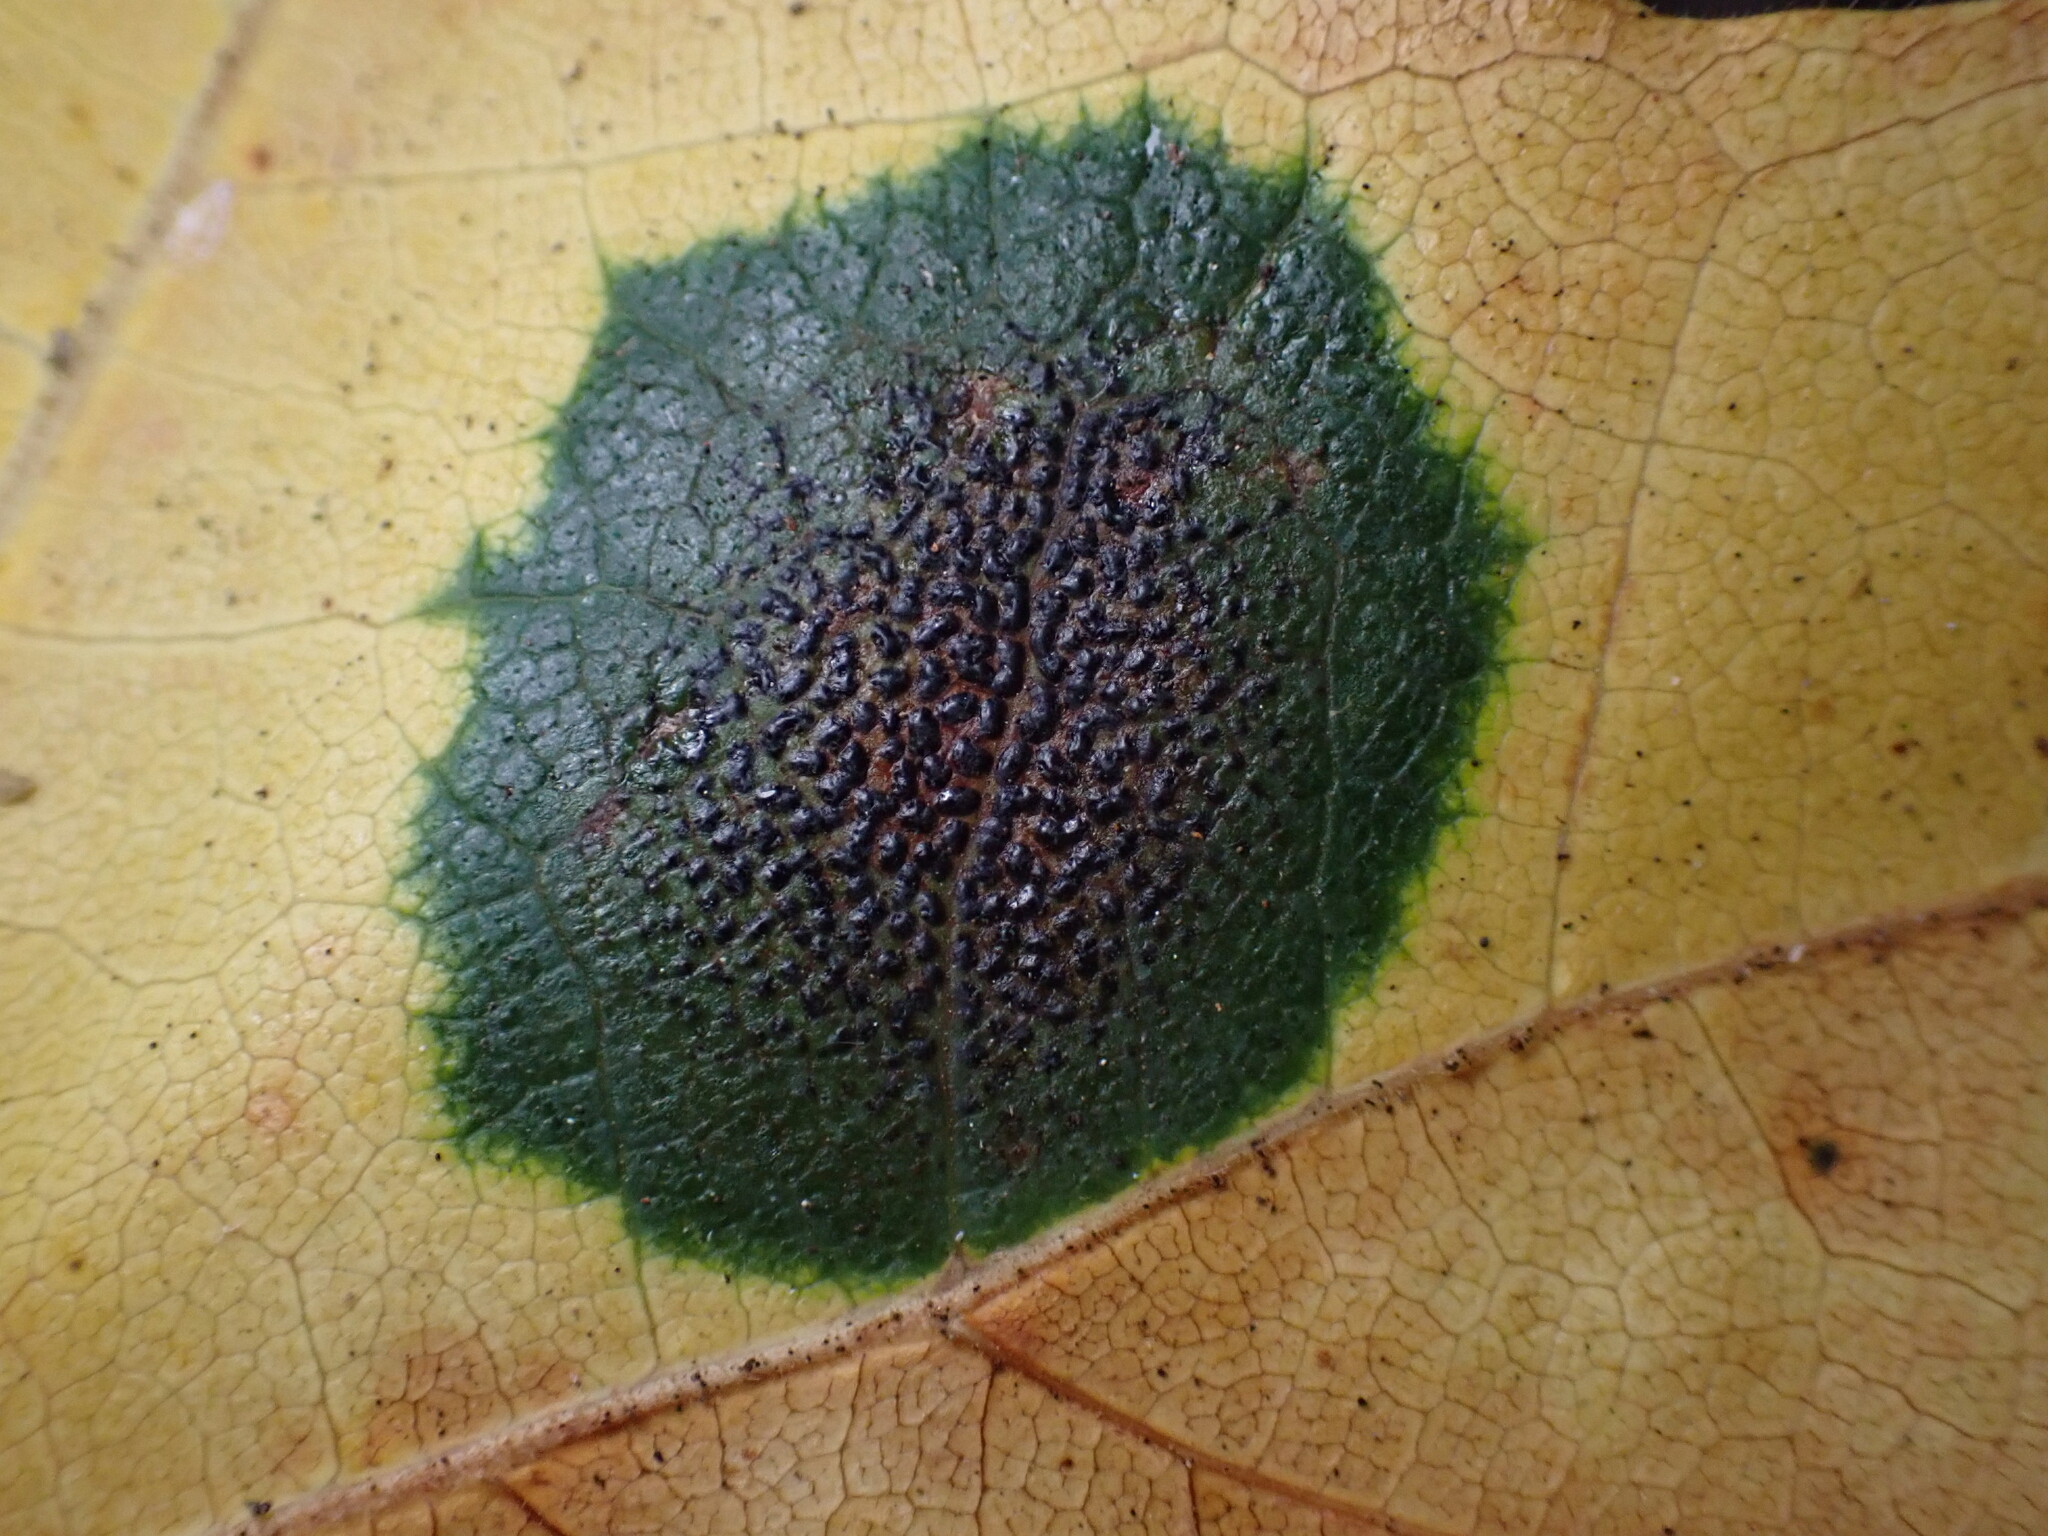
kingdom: Fungi
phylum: Ascomycota
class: Leotiomycetes
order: Rhytismatales
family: Rhytismataceae
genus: Rhytisma
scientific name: Rhytisma punctatum
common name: Speckled tar spot
